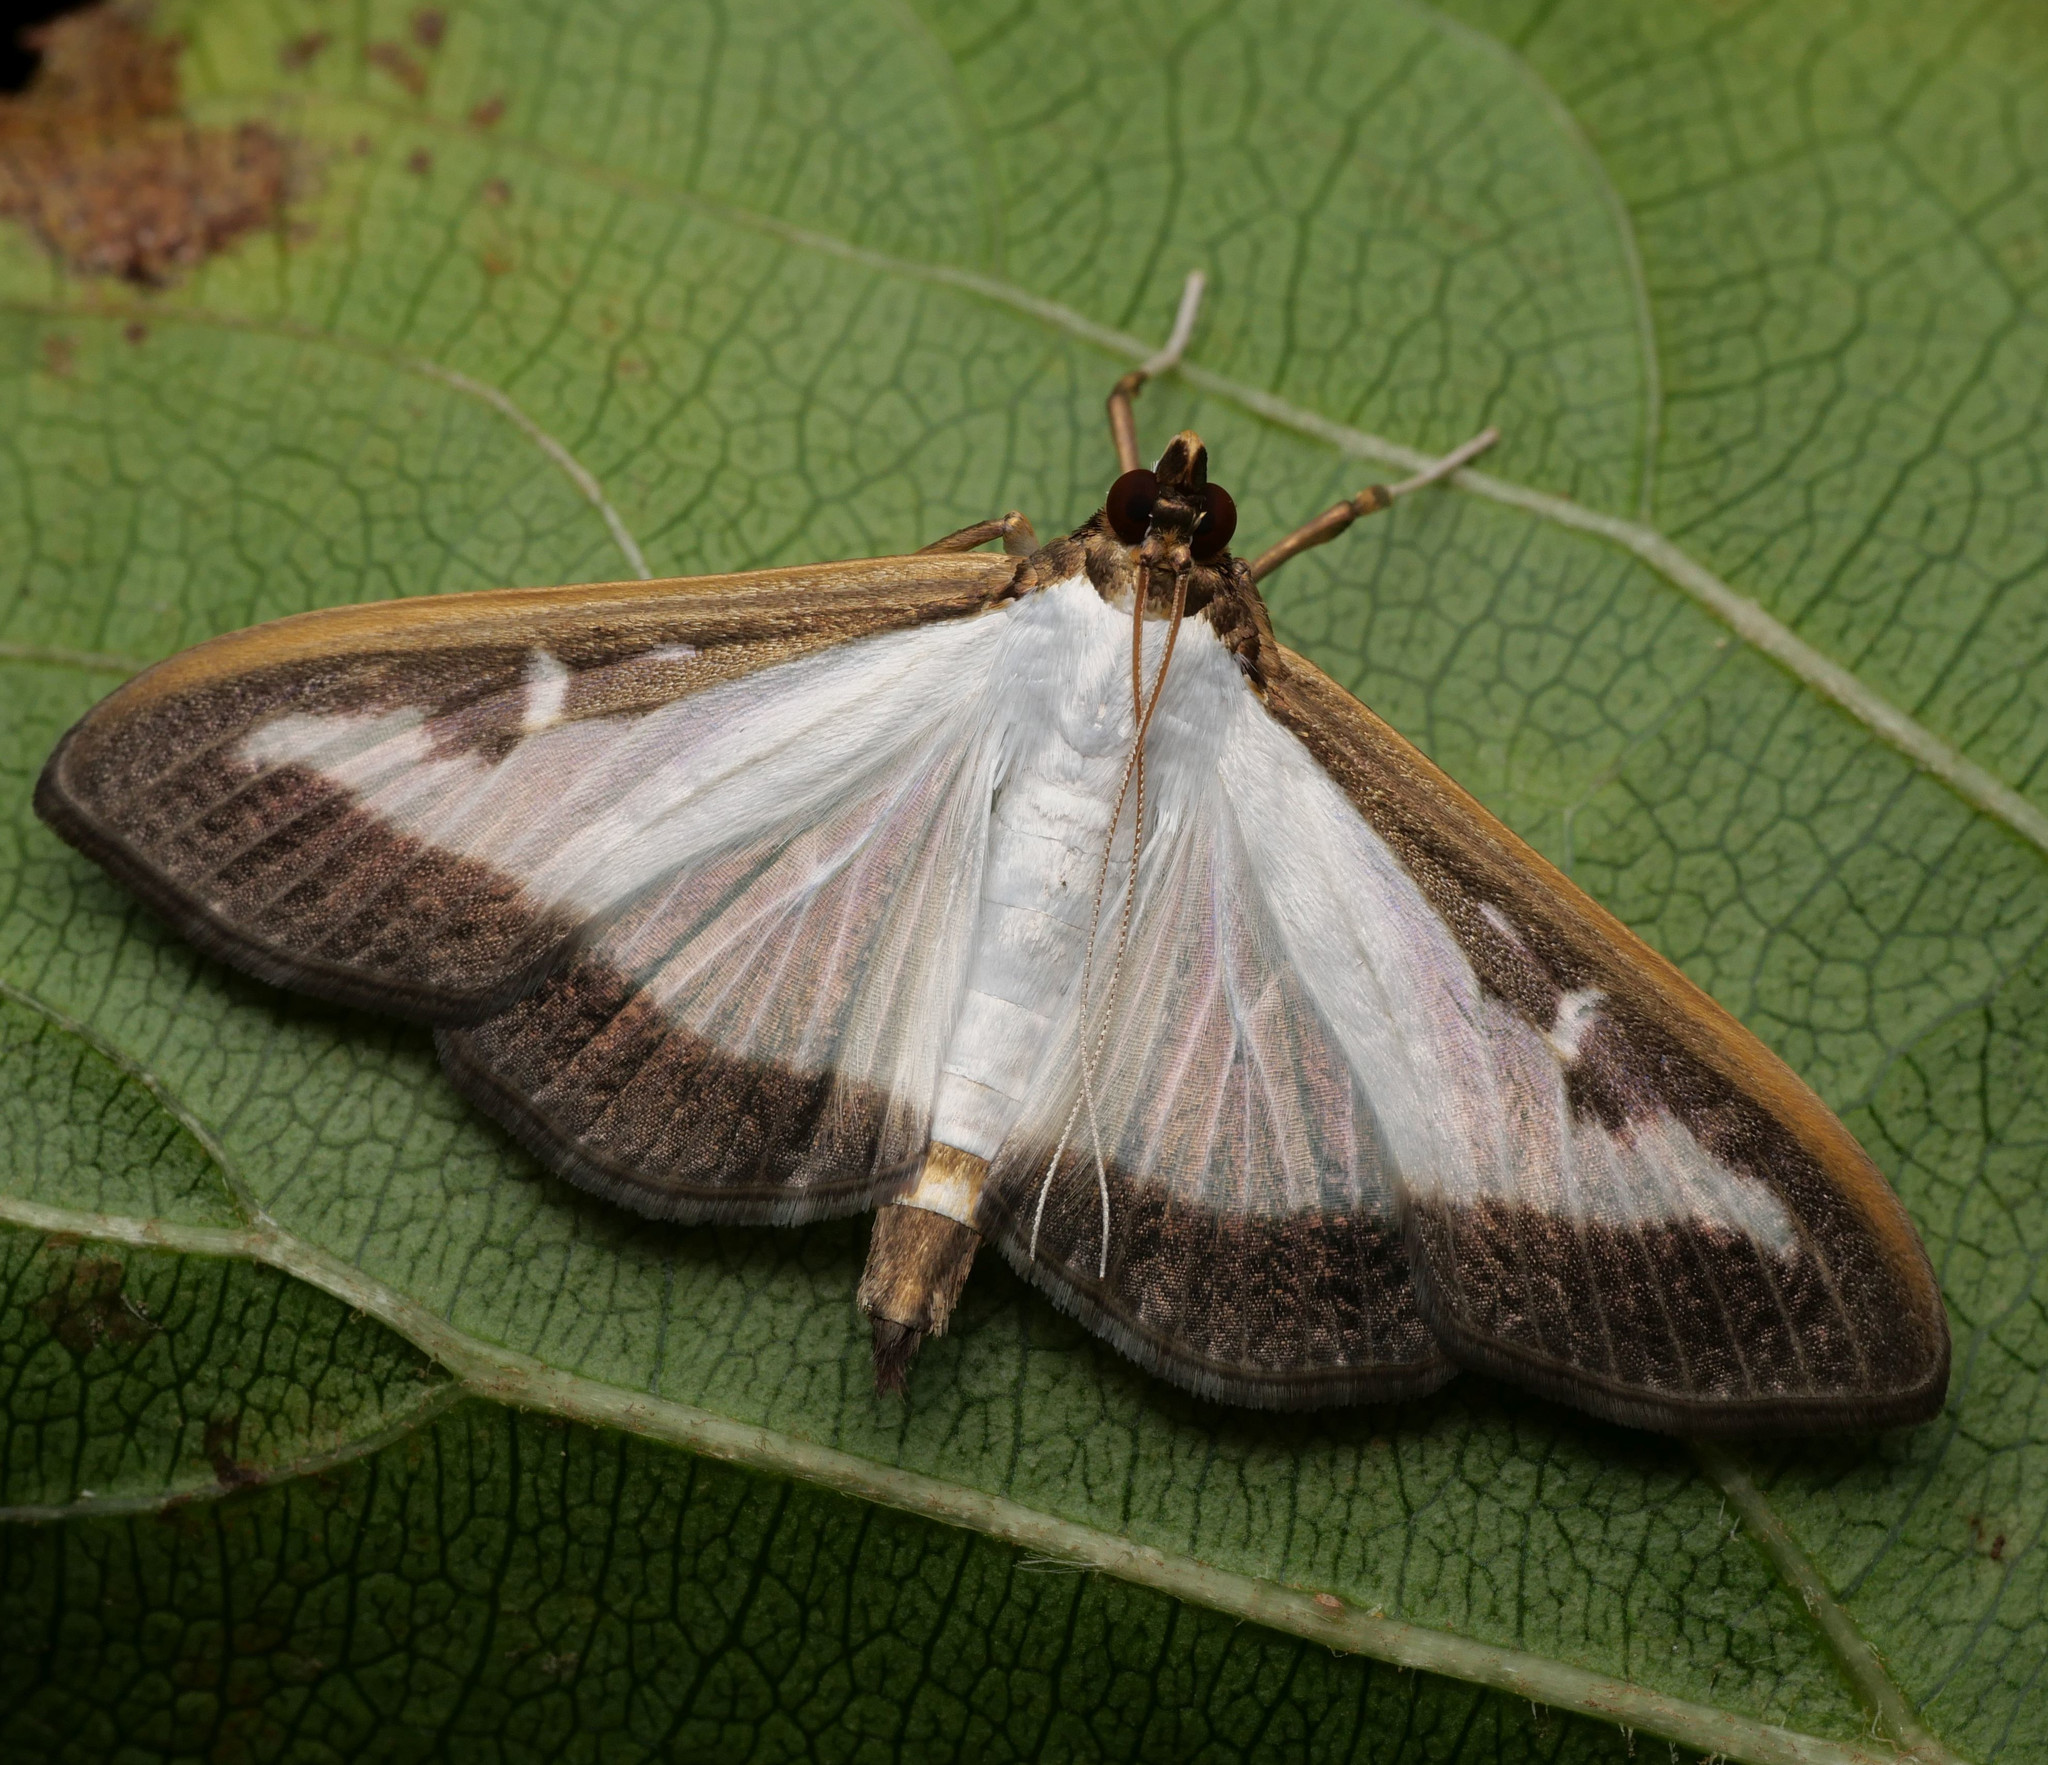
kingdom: Animalia
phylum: Arthropoda
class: Insecta
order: Lepidoptera
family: Crambidae
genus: Cydalima
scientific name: Cydalima perspectalis
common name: Box tree moth
